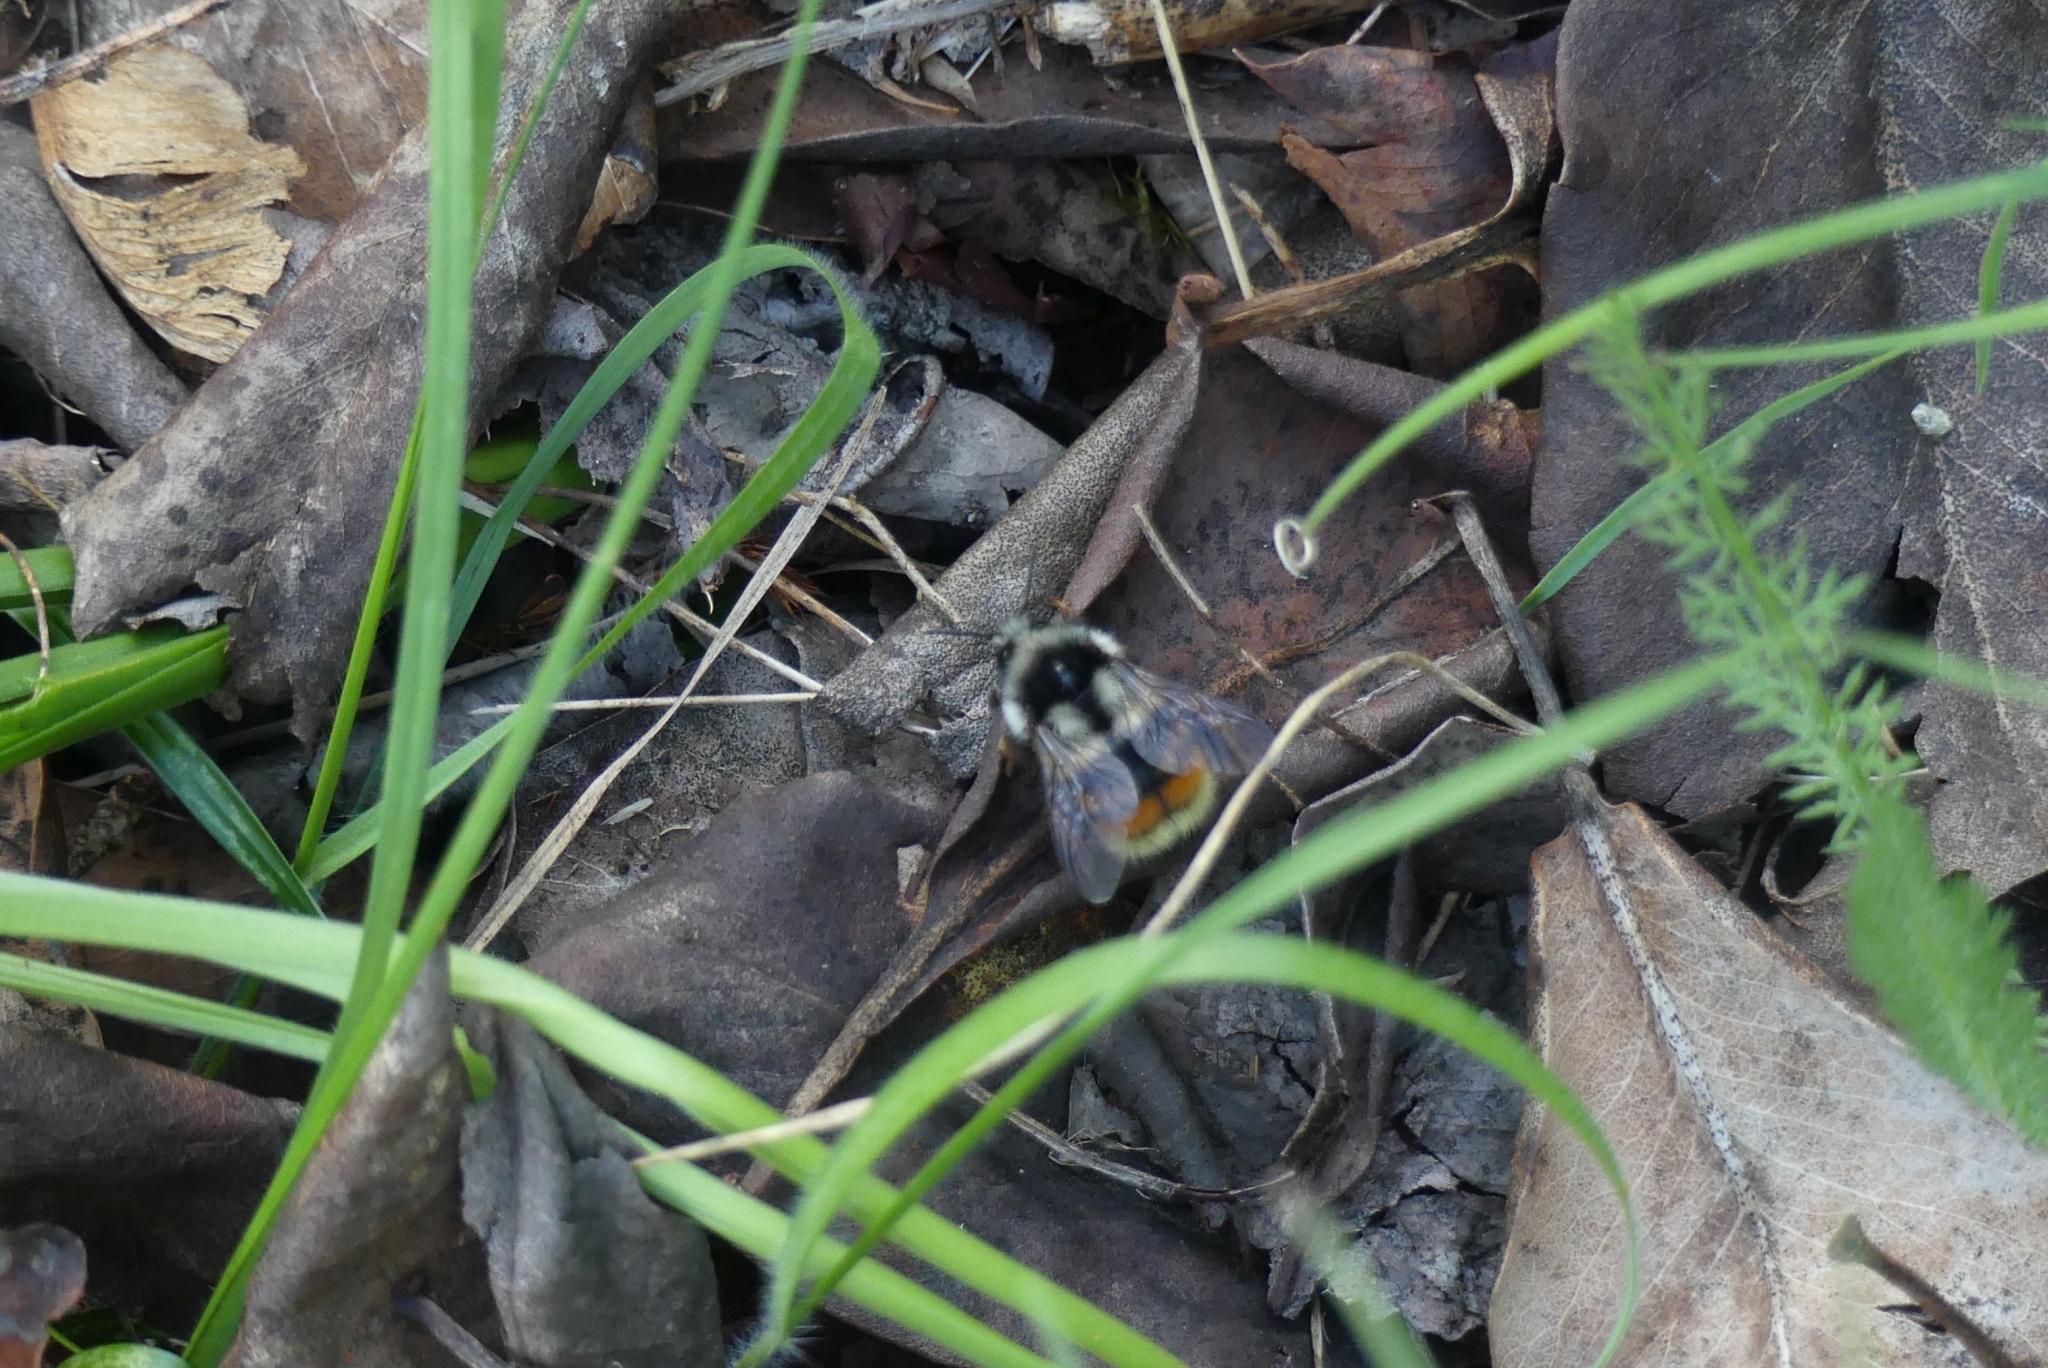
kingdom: Animalia
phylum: Arthropoda
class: Insecta
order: Hymenoptera
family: Apidae
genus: Bombus
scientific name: Bombus vancouverensis
